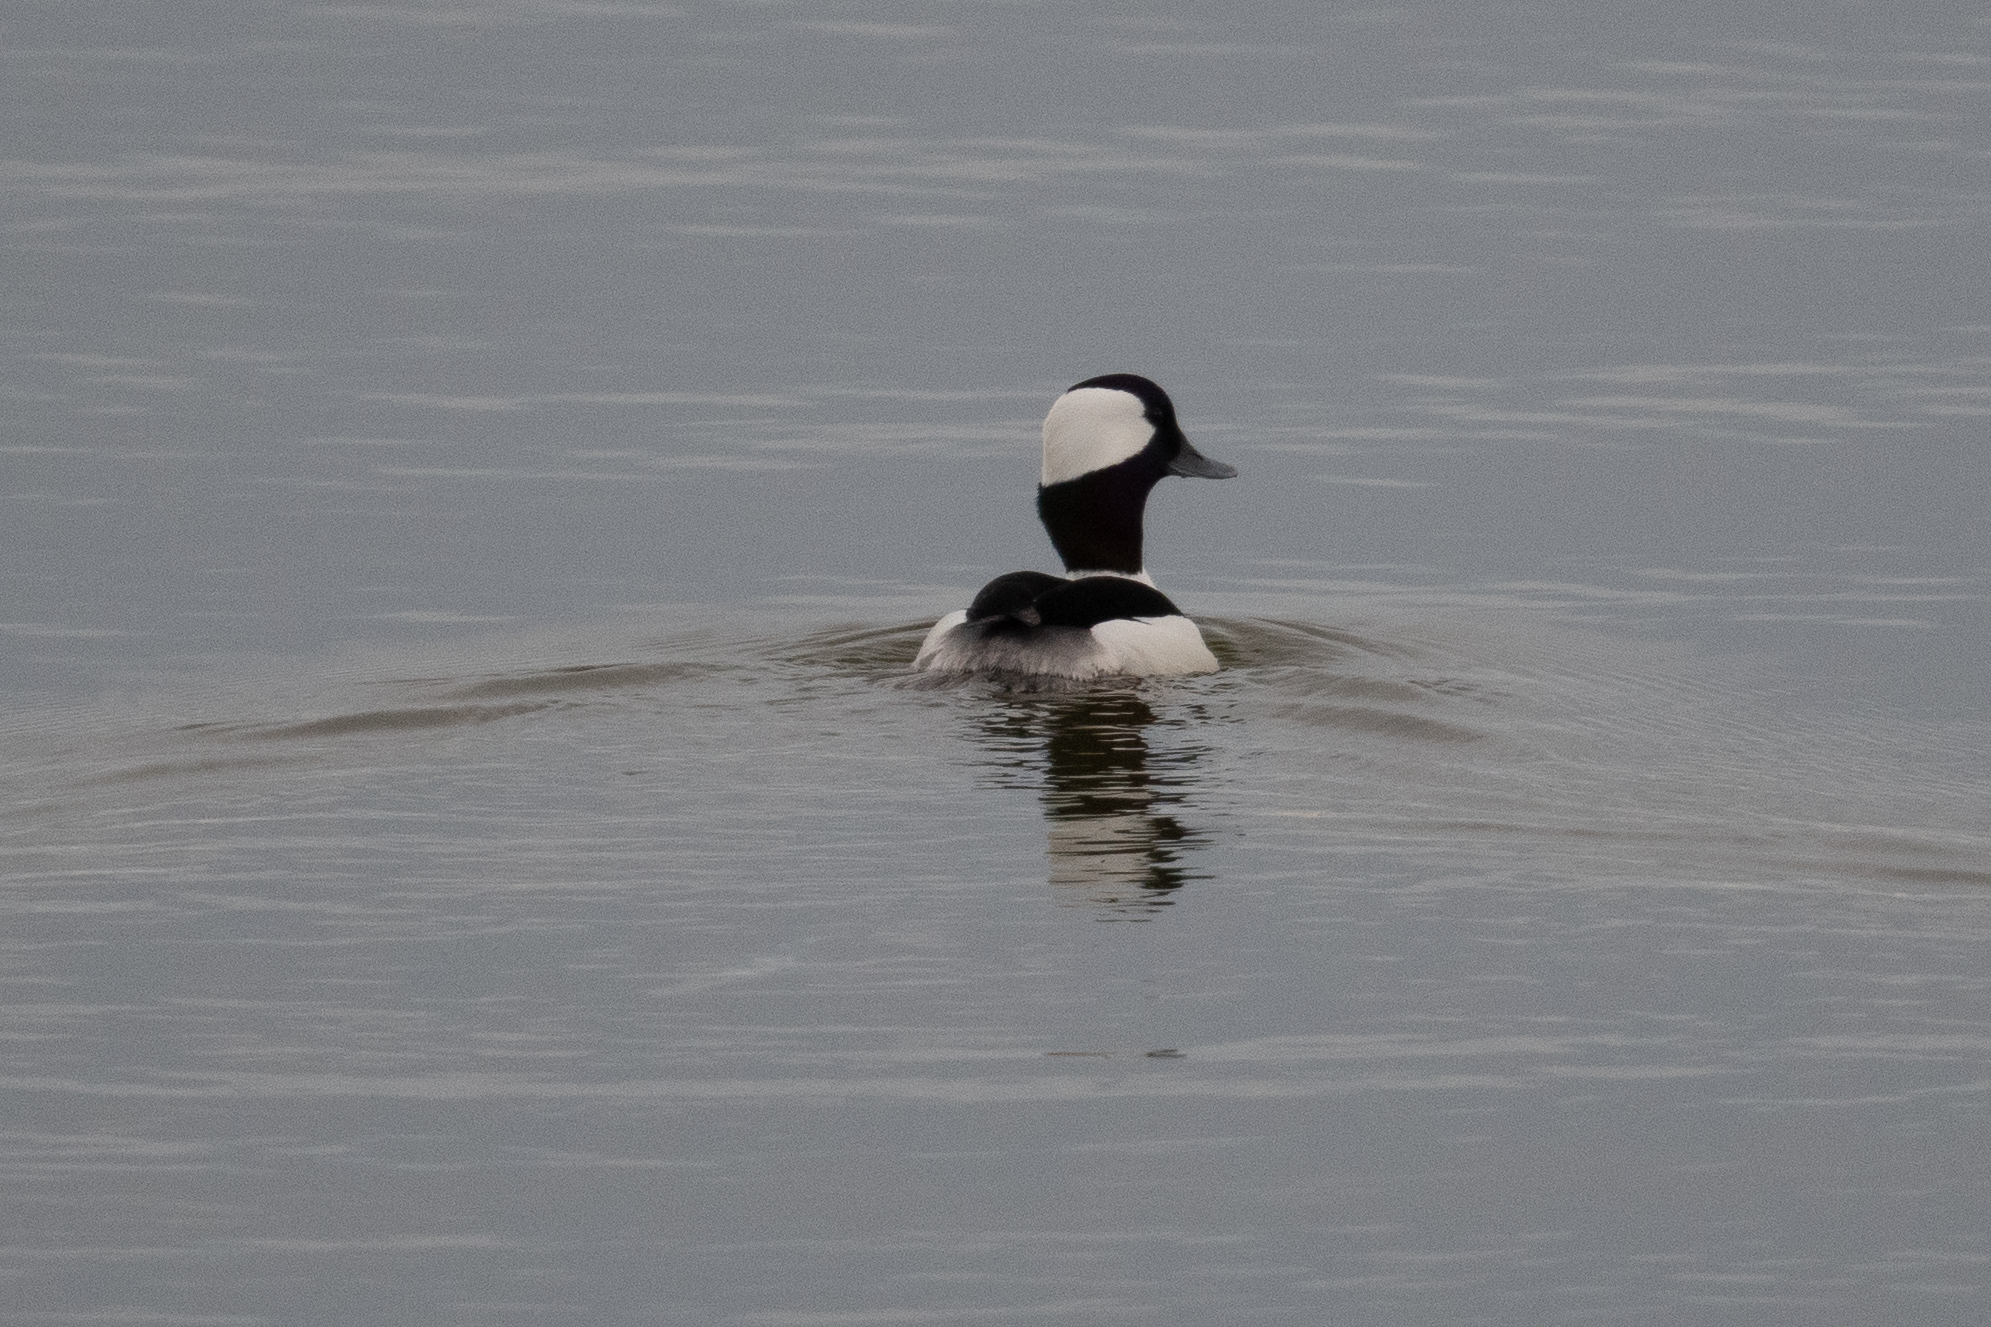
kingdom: Animalia
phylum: Chordata
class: Aves
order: Anseriformes
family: Anatidae
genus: Bucephala
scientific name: Bucephala albeola
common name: Bufflehead
